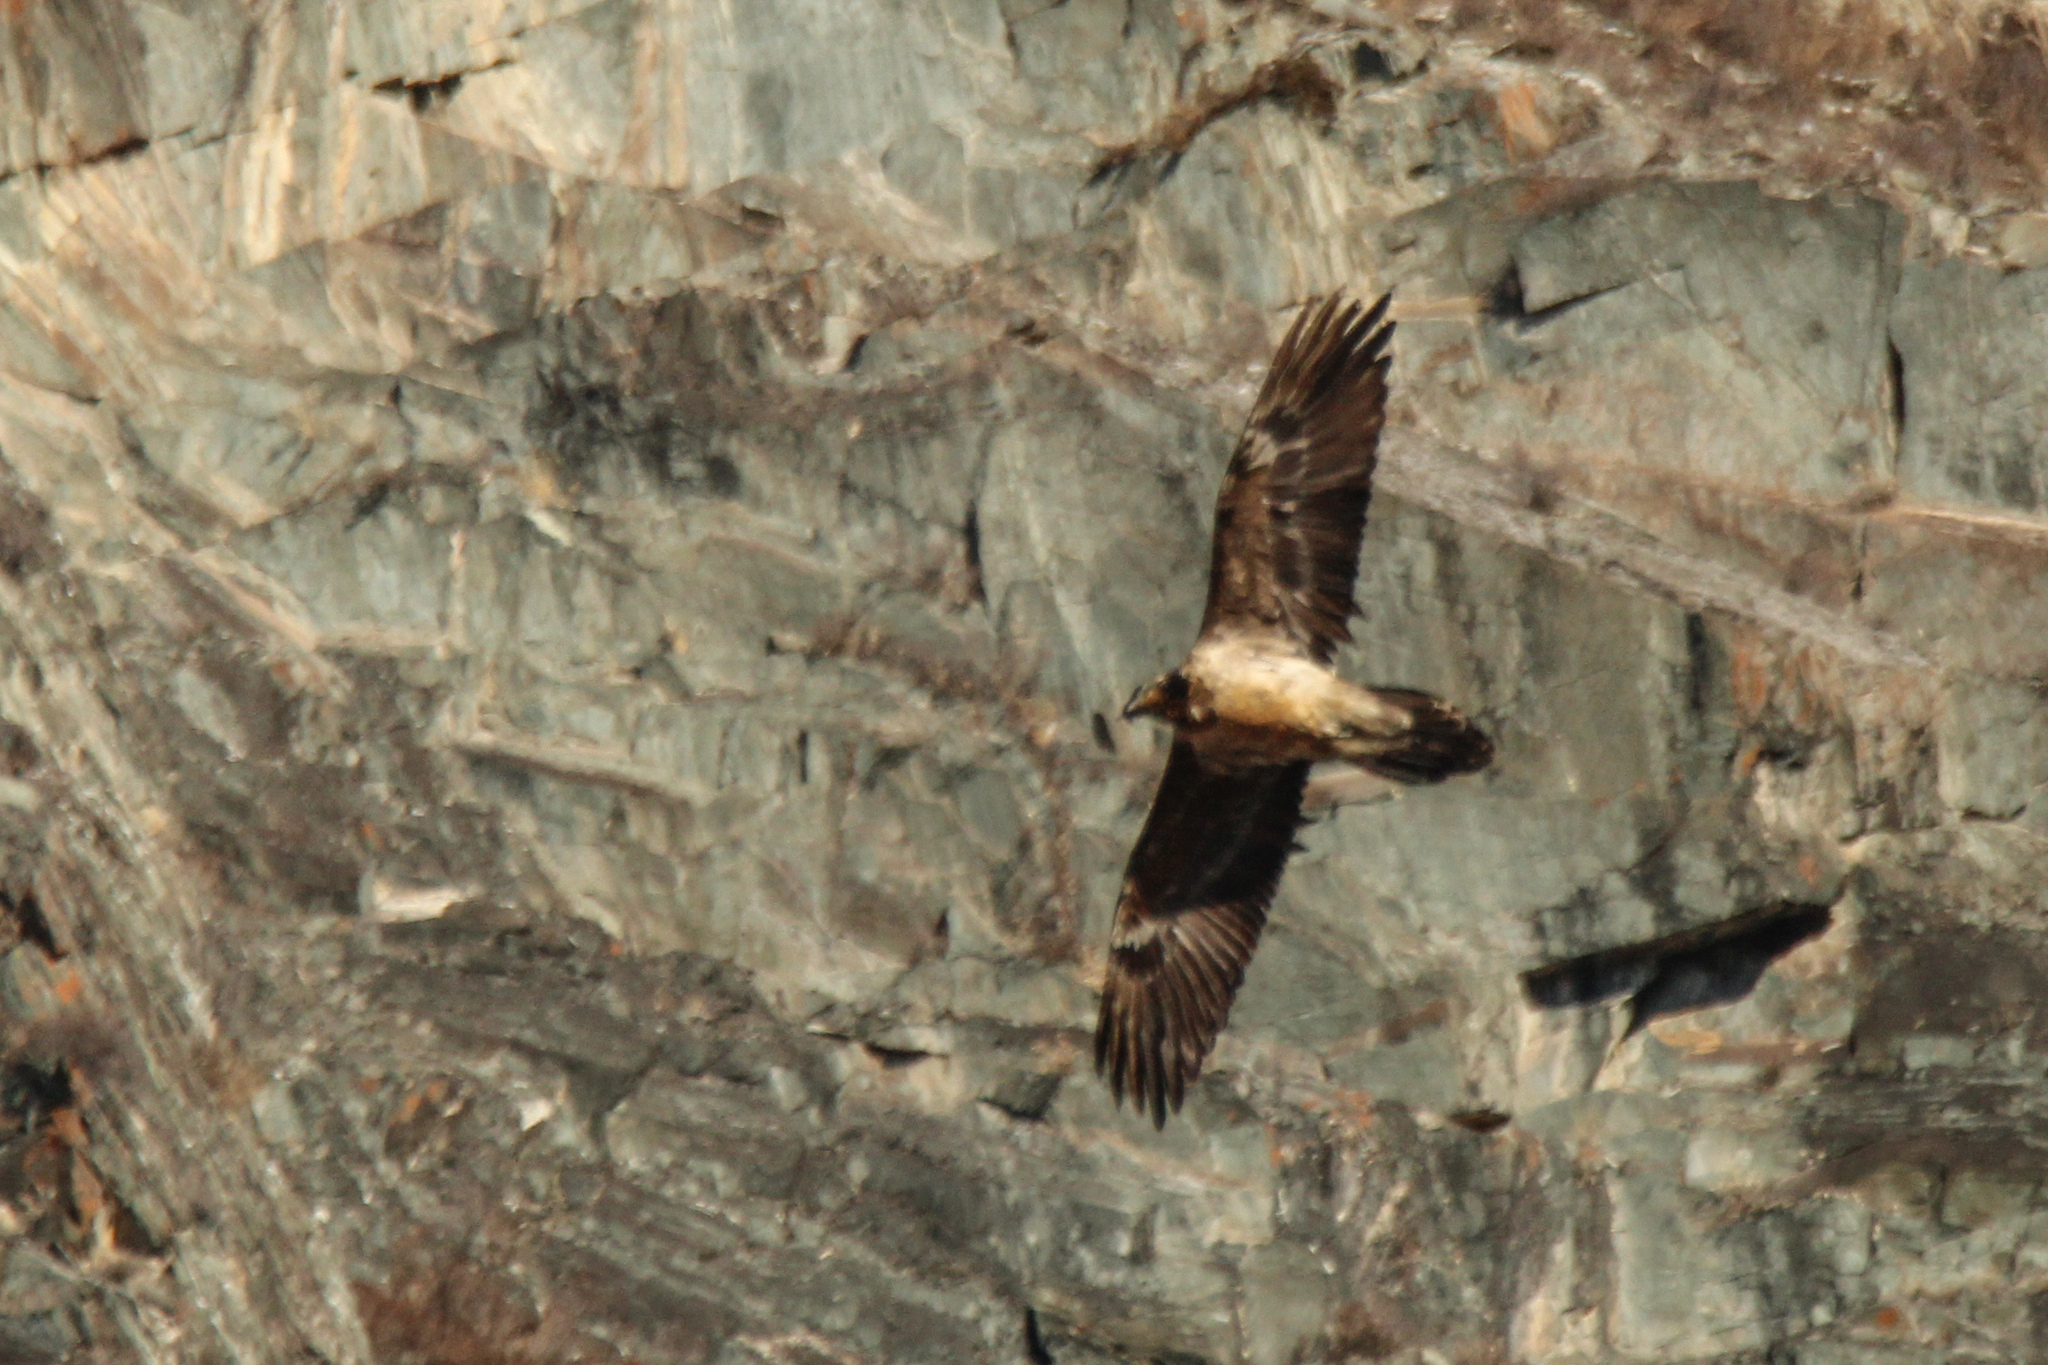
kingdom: Animalia
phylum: Chordata
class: Aves
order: Accipitriformes
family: Accipitridae
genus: Gypaetus
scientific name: Gypaetus barbatus
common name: Bearded vulture
